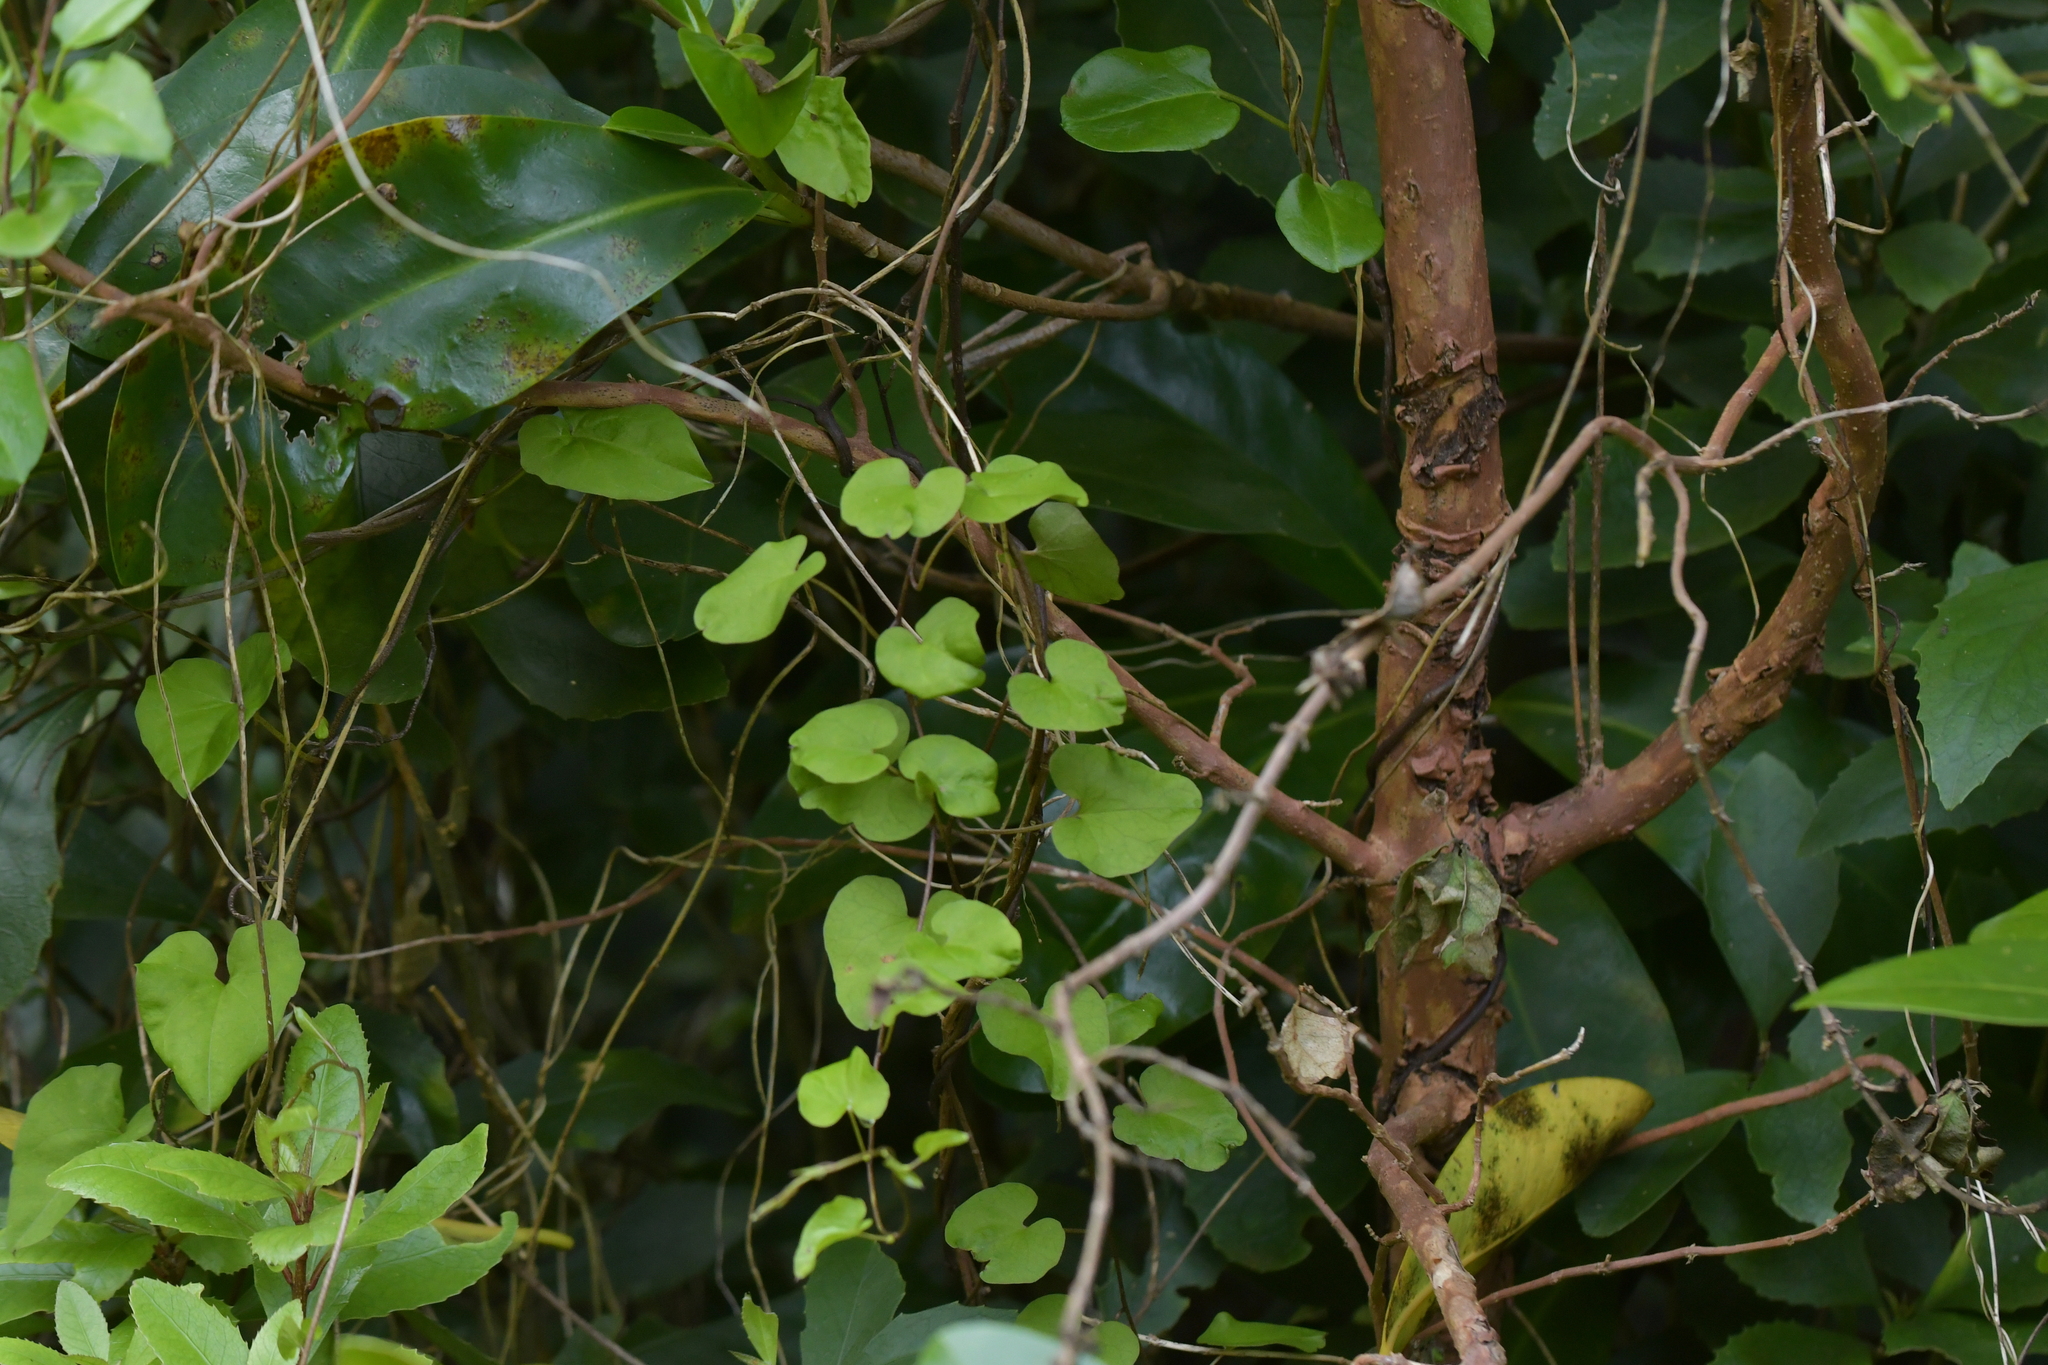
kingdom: Plantae
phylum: Tracheophyta
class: Magnoliopsida
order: Solanales
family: Convolvulaceae
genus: Calystegia
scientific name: Calystegia tuguriorum
